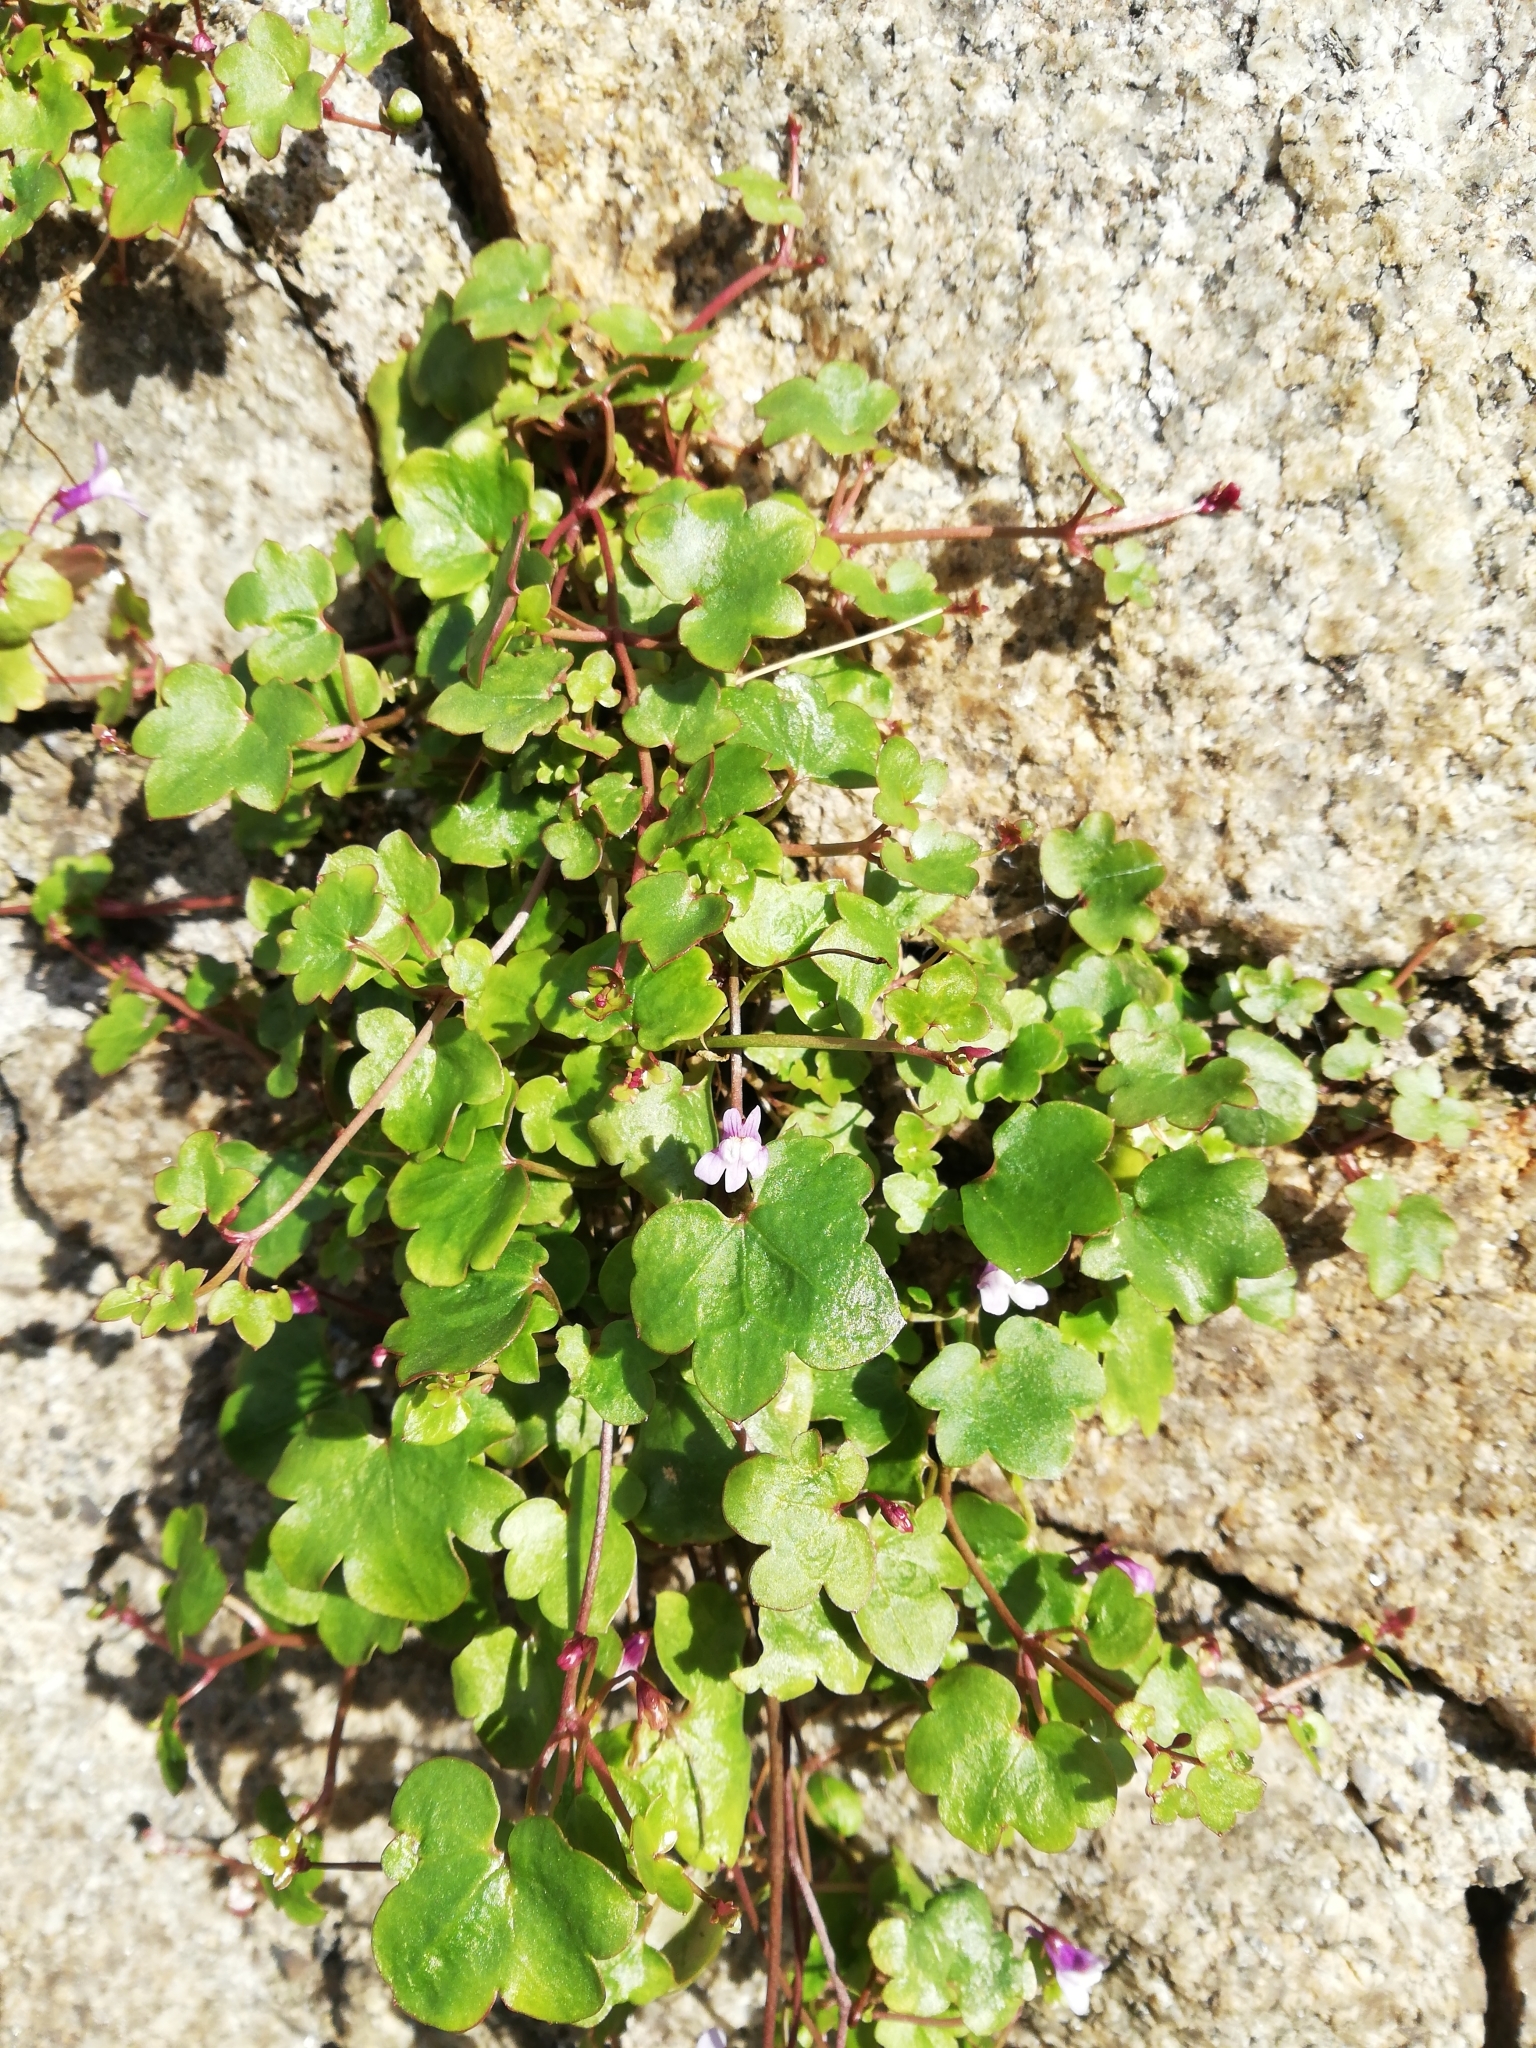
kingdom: Plantae
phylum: Tracheophyta
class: Magnoliopsida
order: Lamiales
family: Plantaginaceae
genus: Cymbalaria
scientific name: Cymbalaria muralis
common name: Ivy-leaved toadflax
